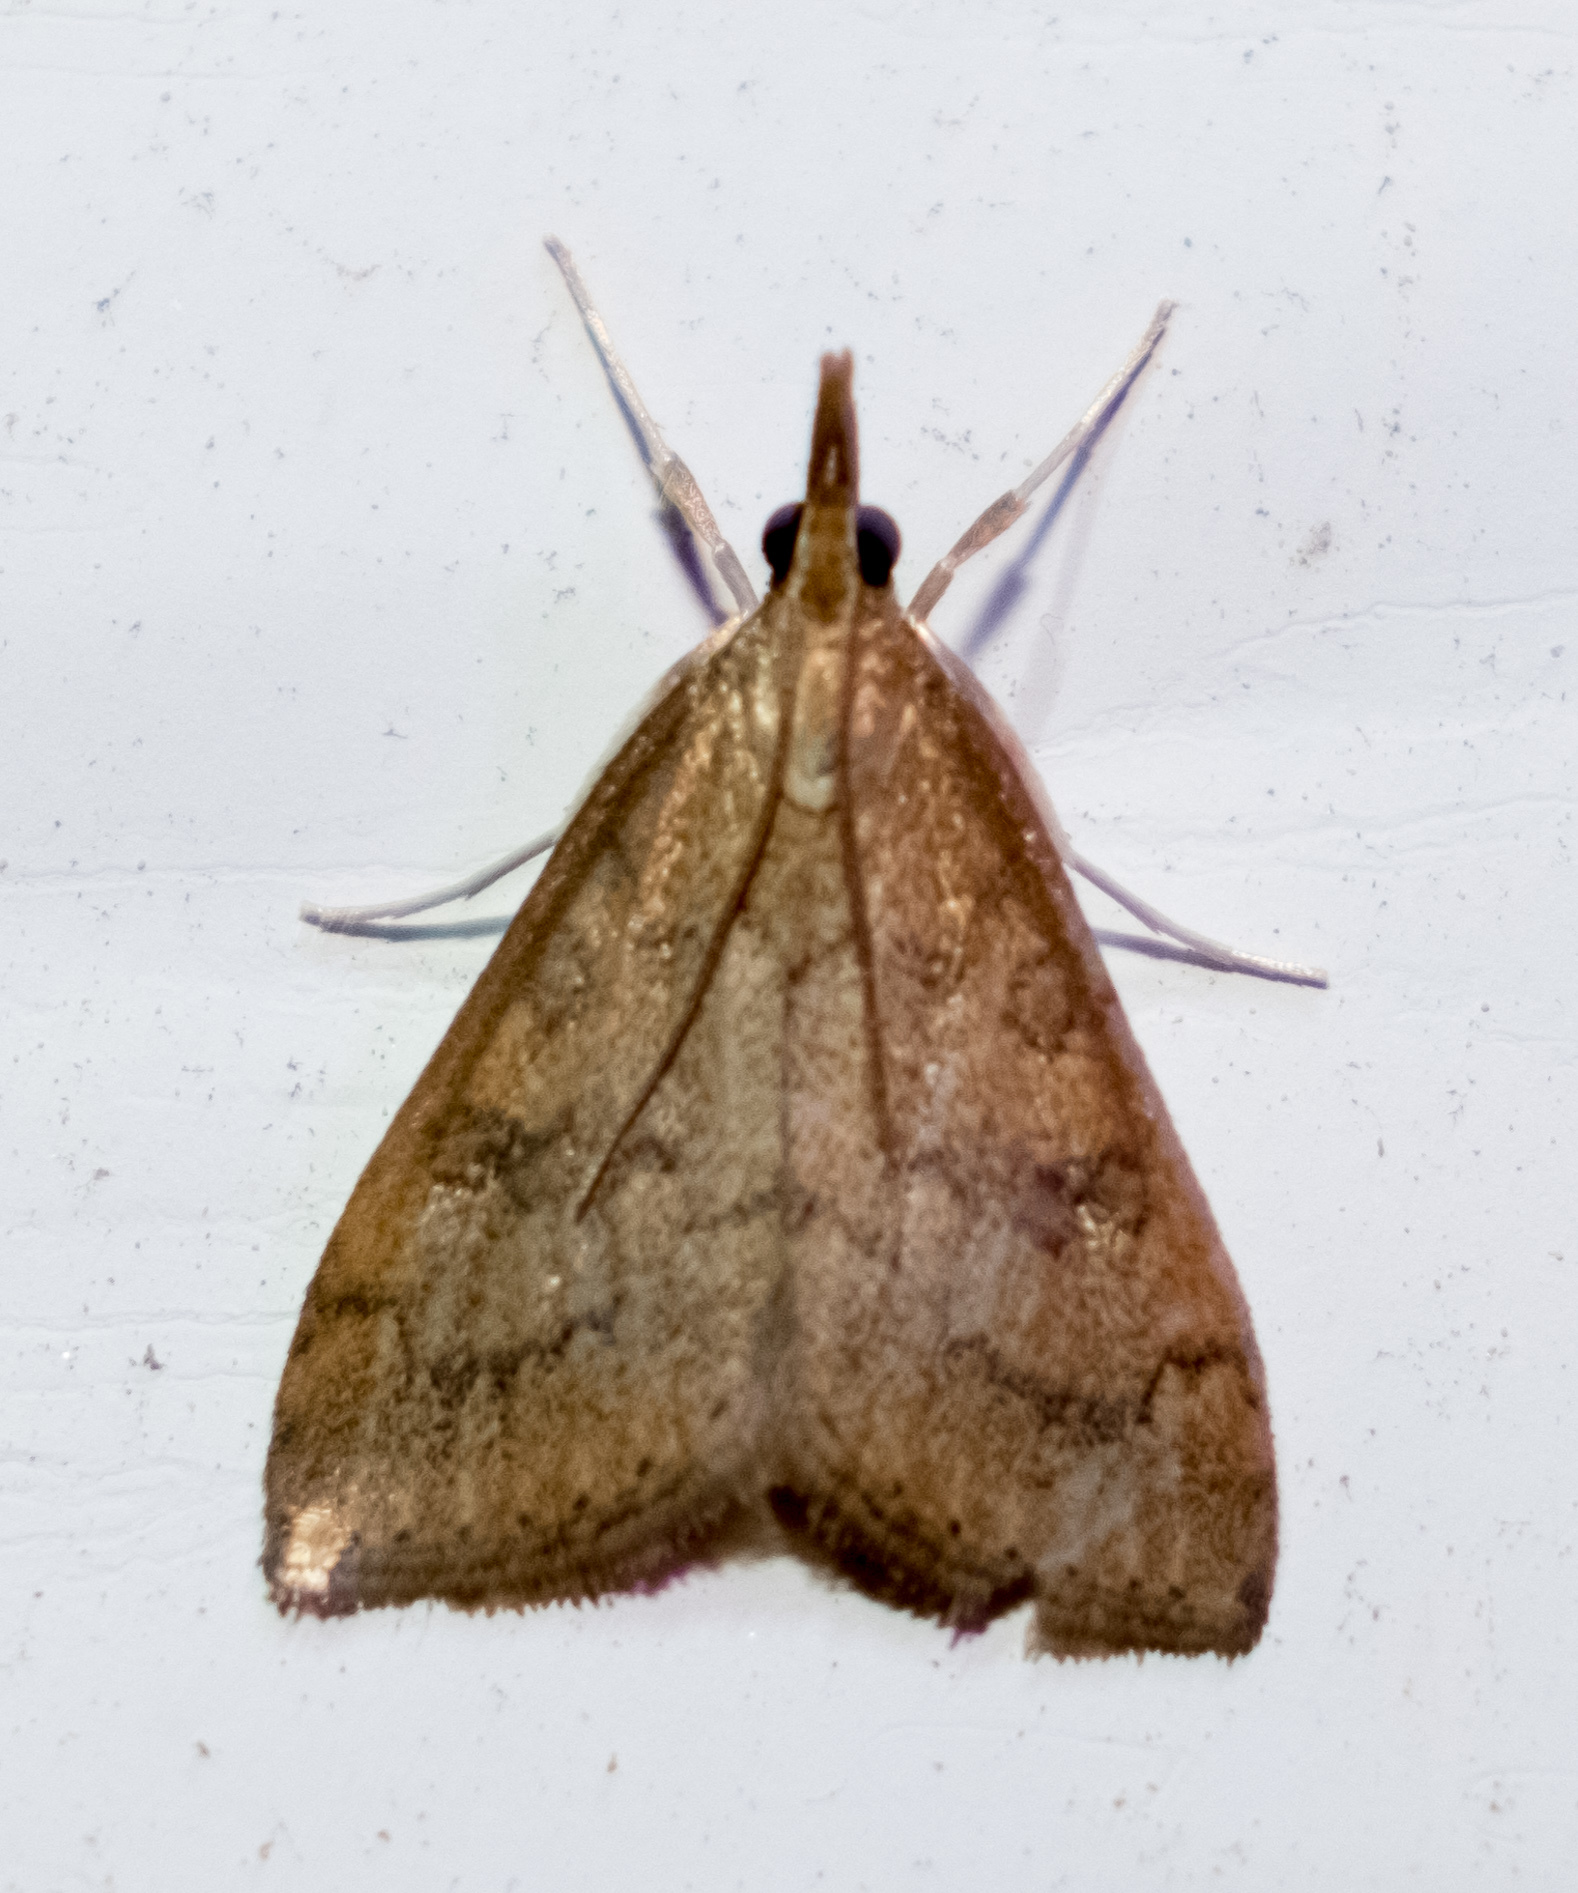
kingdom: Animalia
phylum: Arthropoda
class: Insecta
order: Lepidoptera
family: Crambidae
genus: Udea
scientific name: Udea rubigalis
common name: Celery leaftier moth
